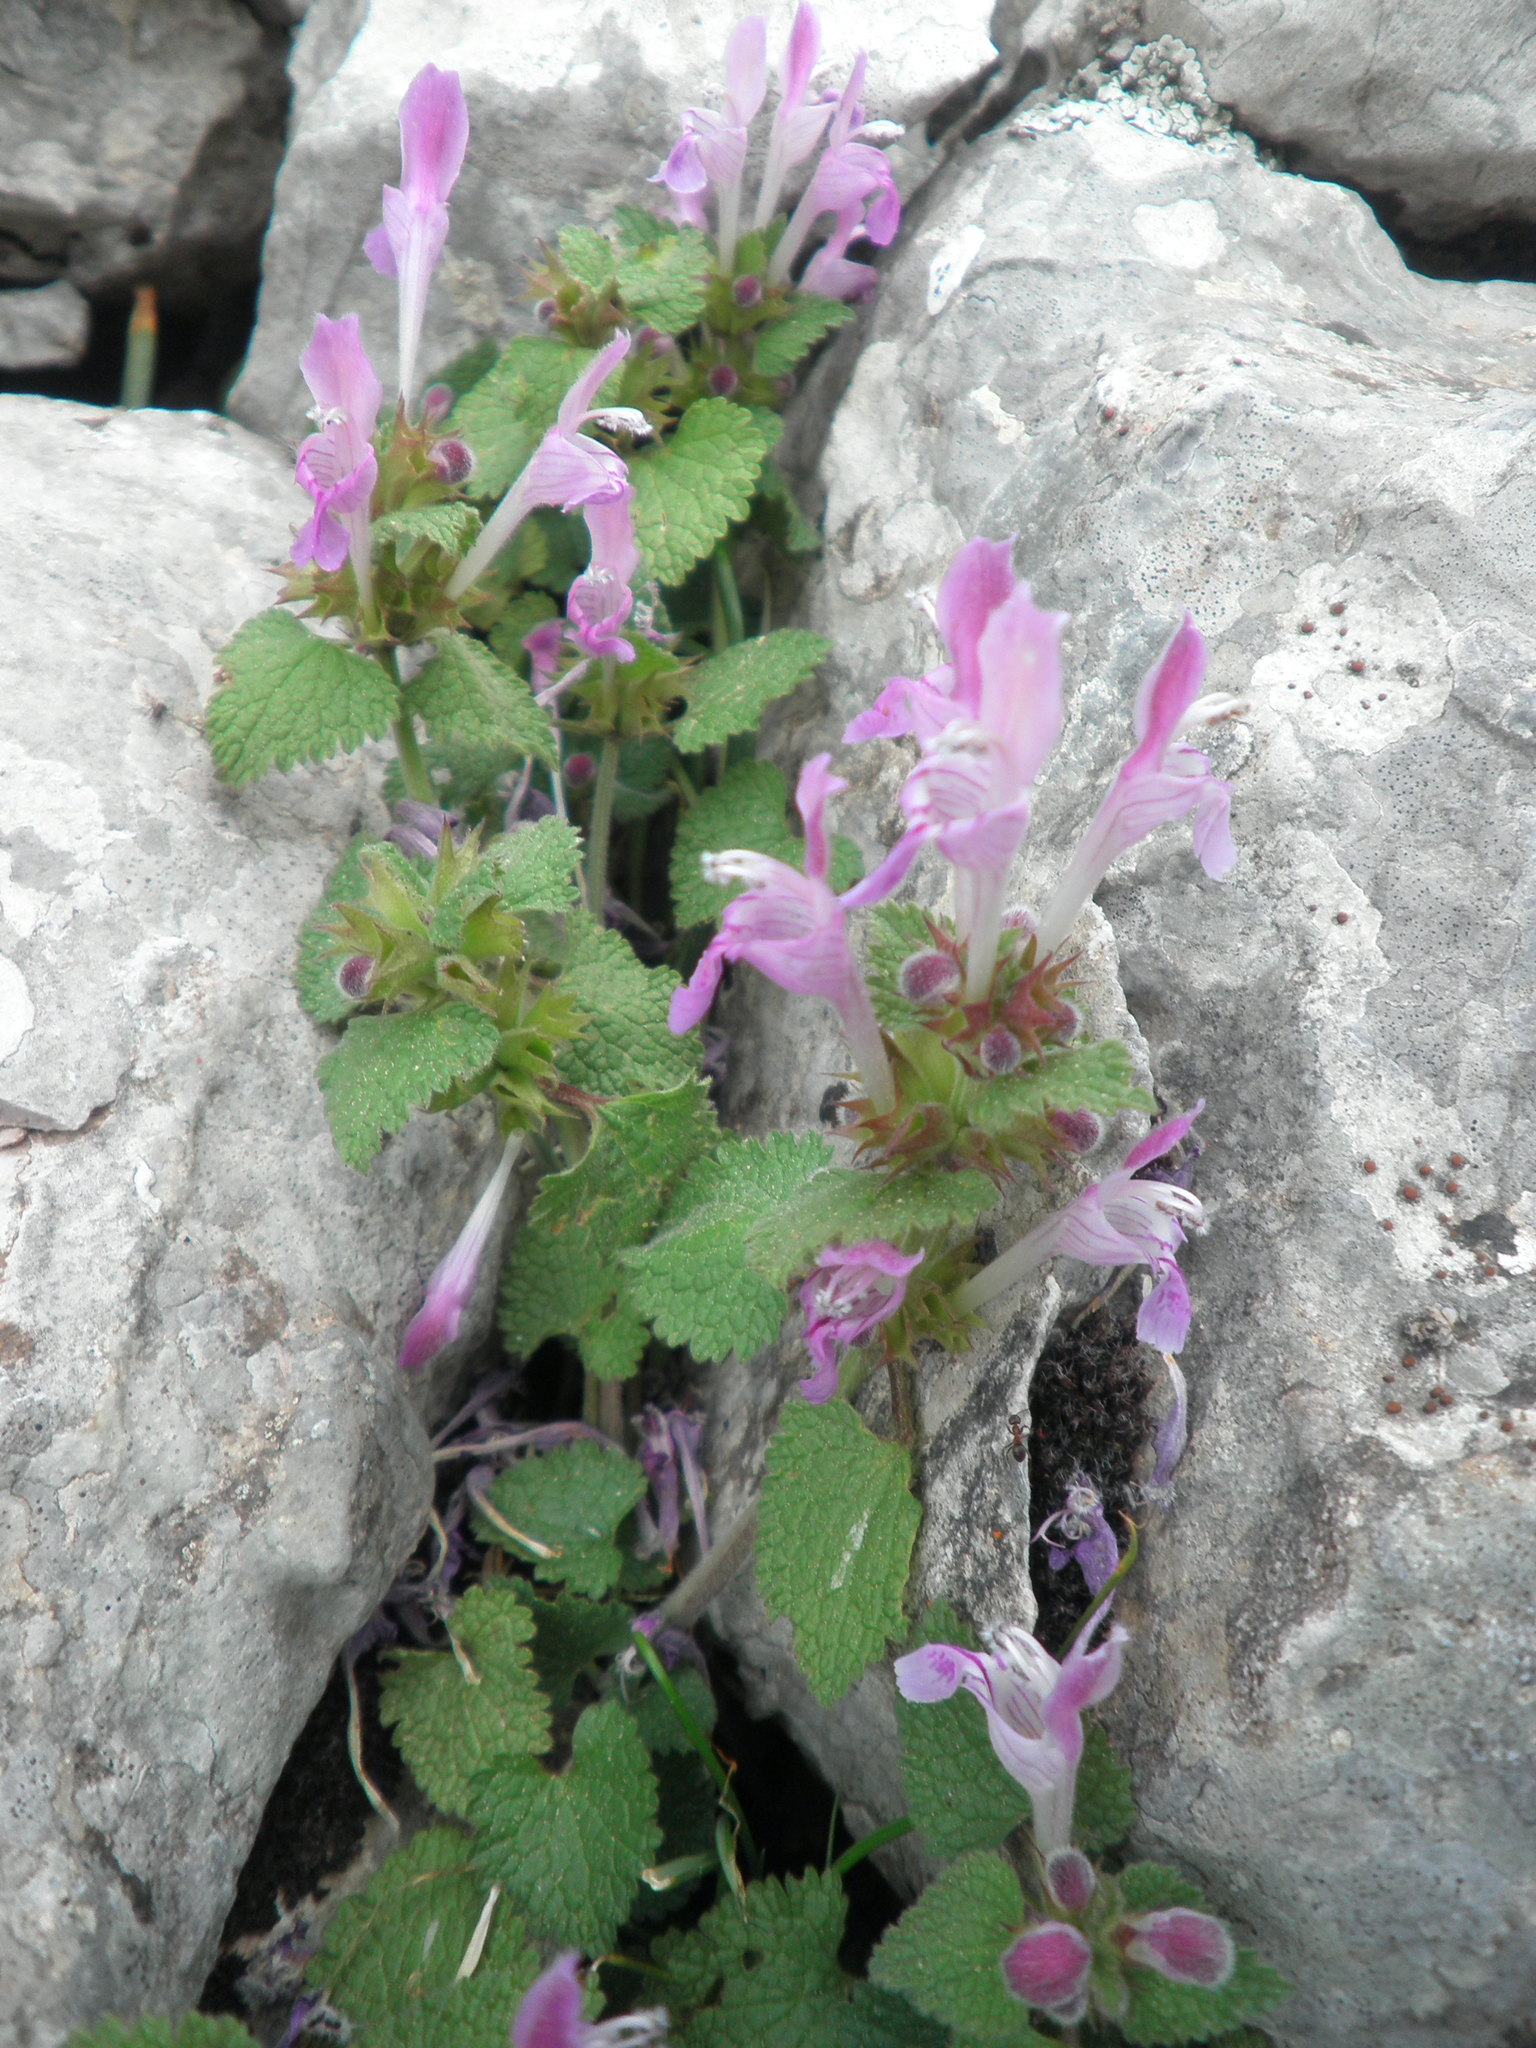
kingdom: Plantae
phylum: Tracheophyta
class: Magnoliopsida
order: Lamiales
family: Lamiaceae
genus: Lamium
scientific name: Lamium garganicum
